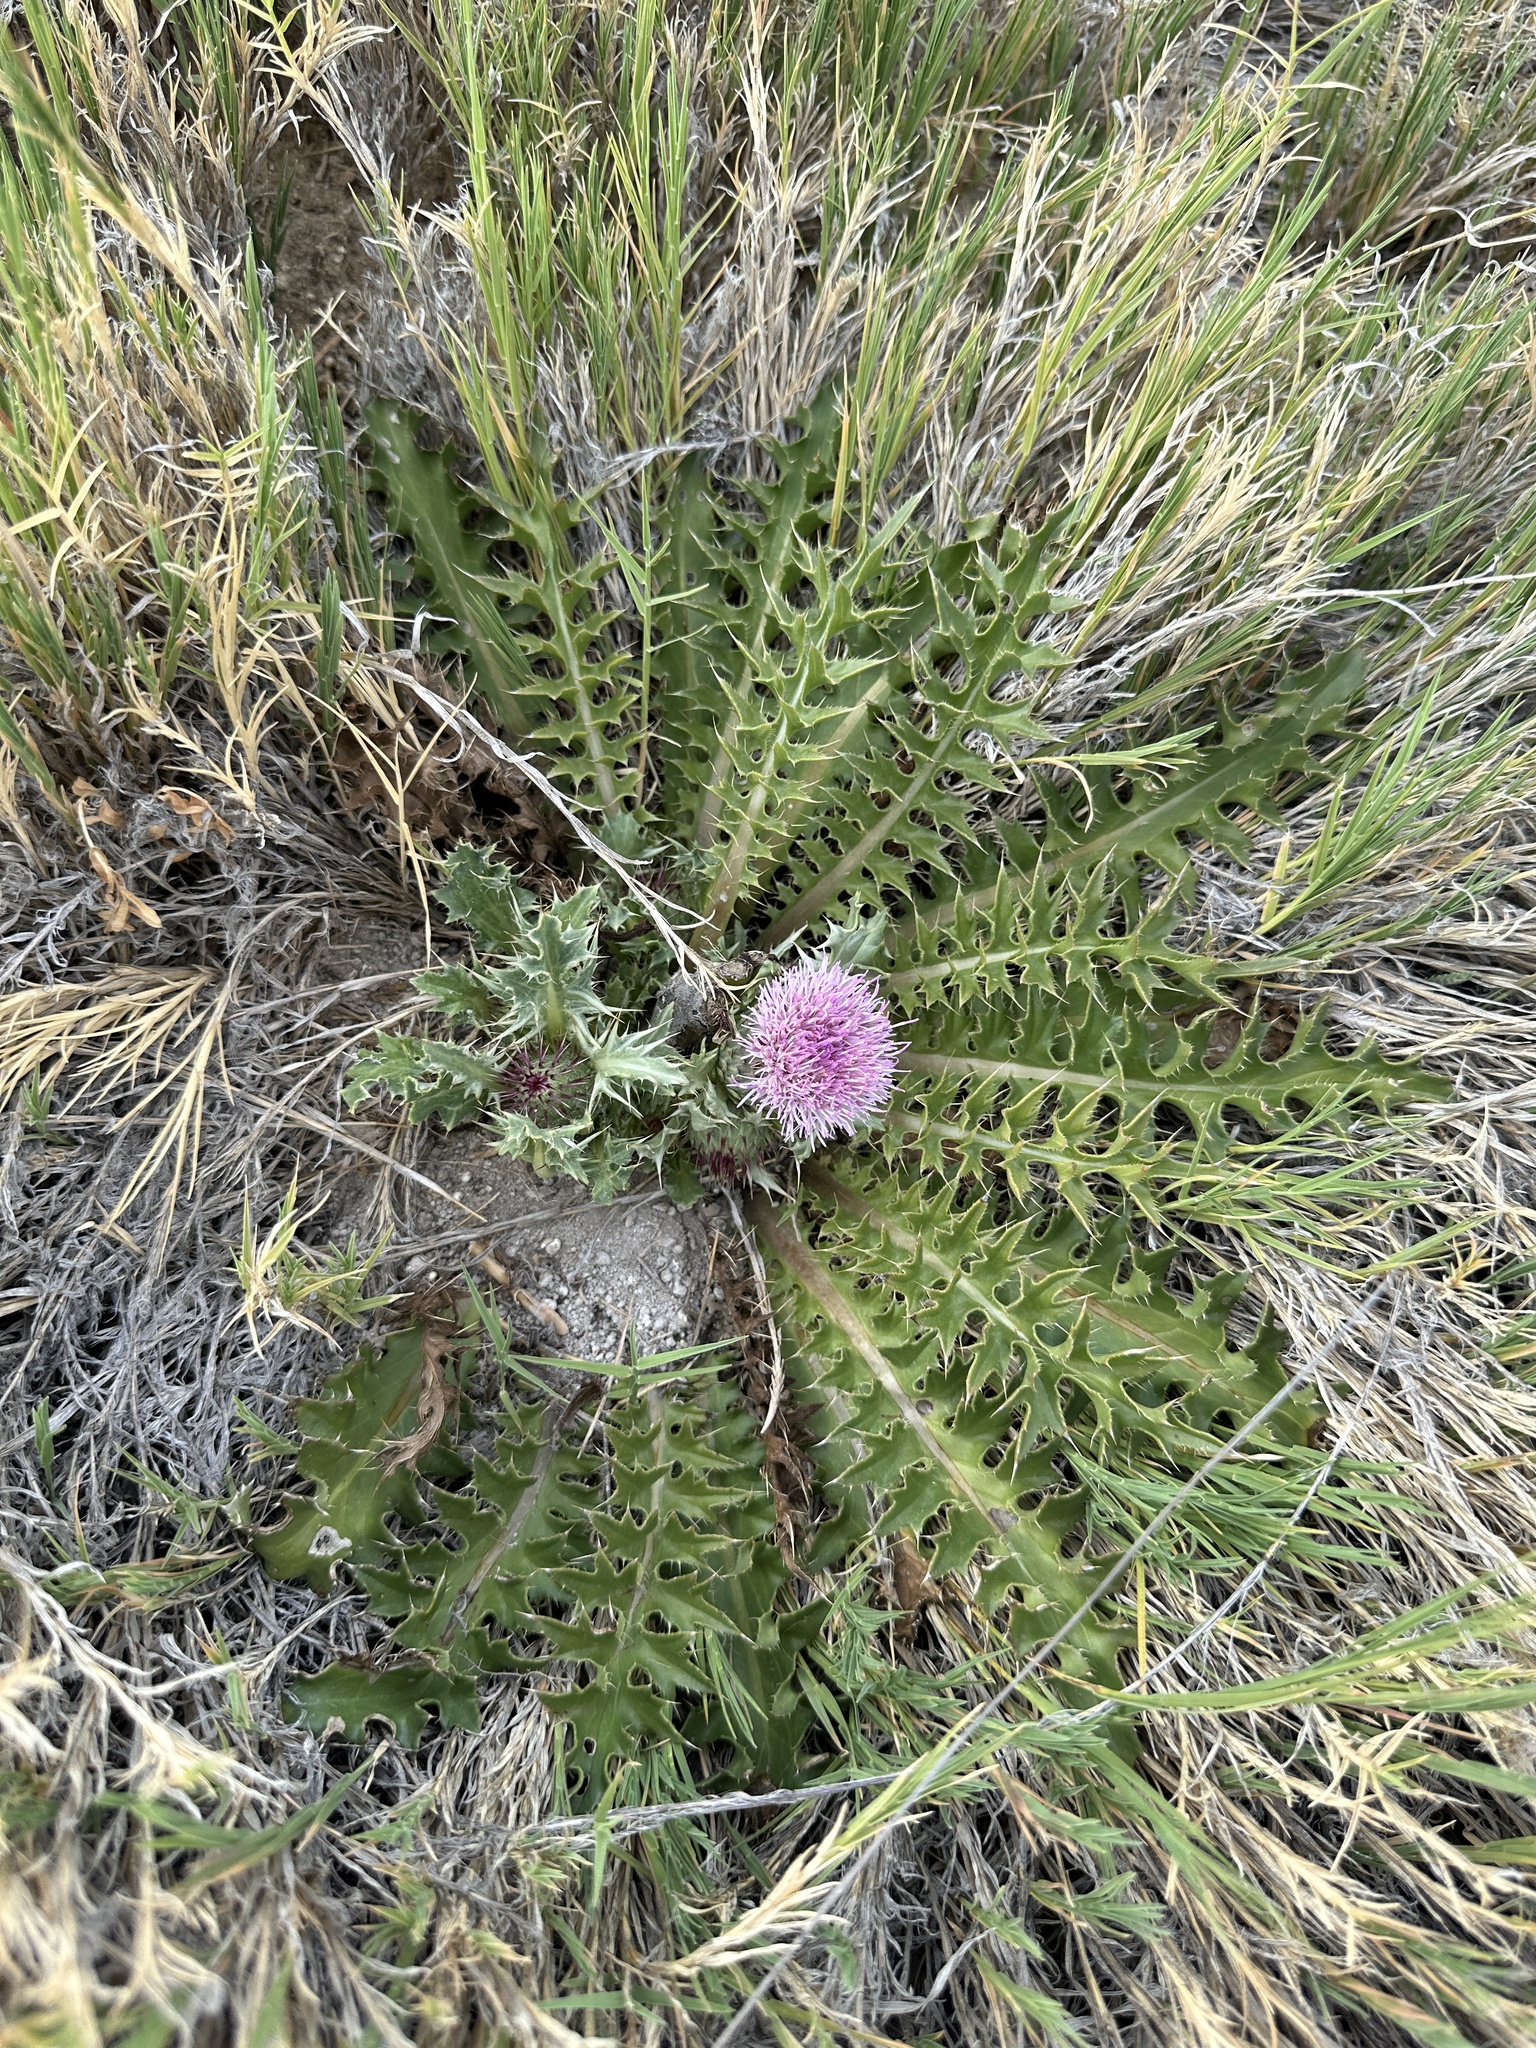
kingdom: Plantae
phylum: Tracheophyta
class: Magnoliopsida
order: Asterales
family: Asteraceae
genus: Cirsium
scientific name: Cirsium scariosum
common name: Meadow thistle
